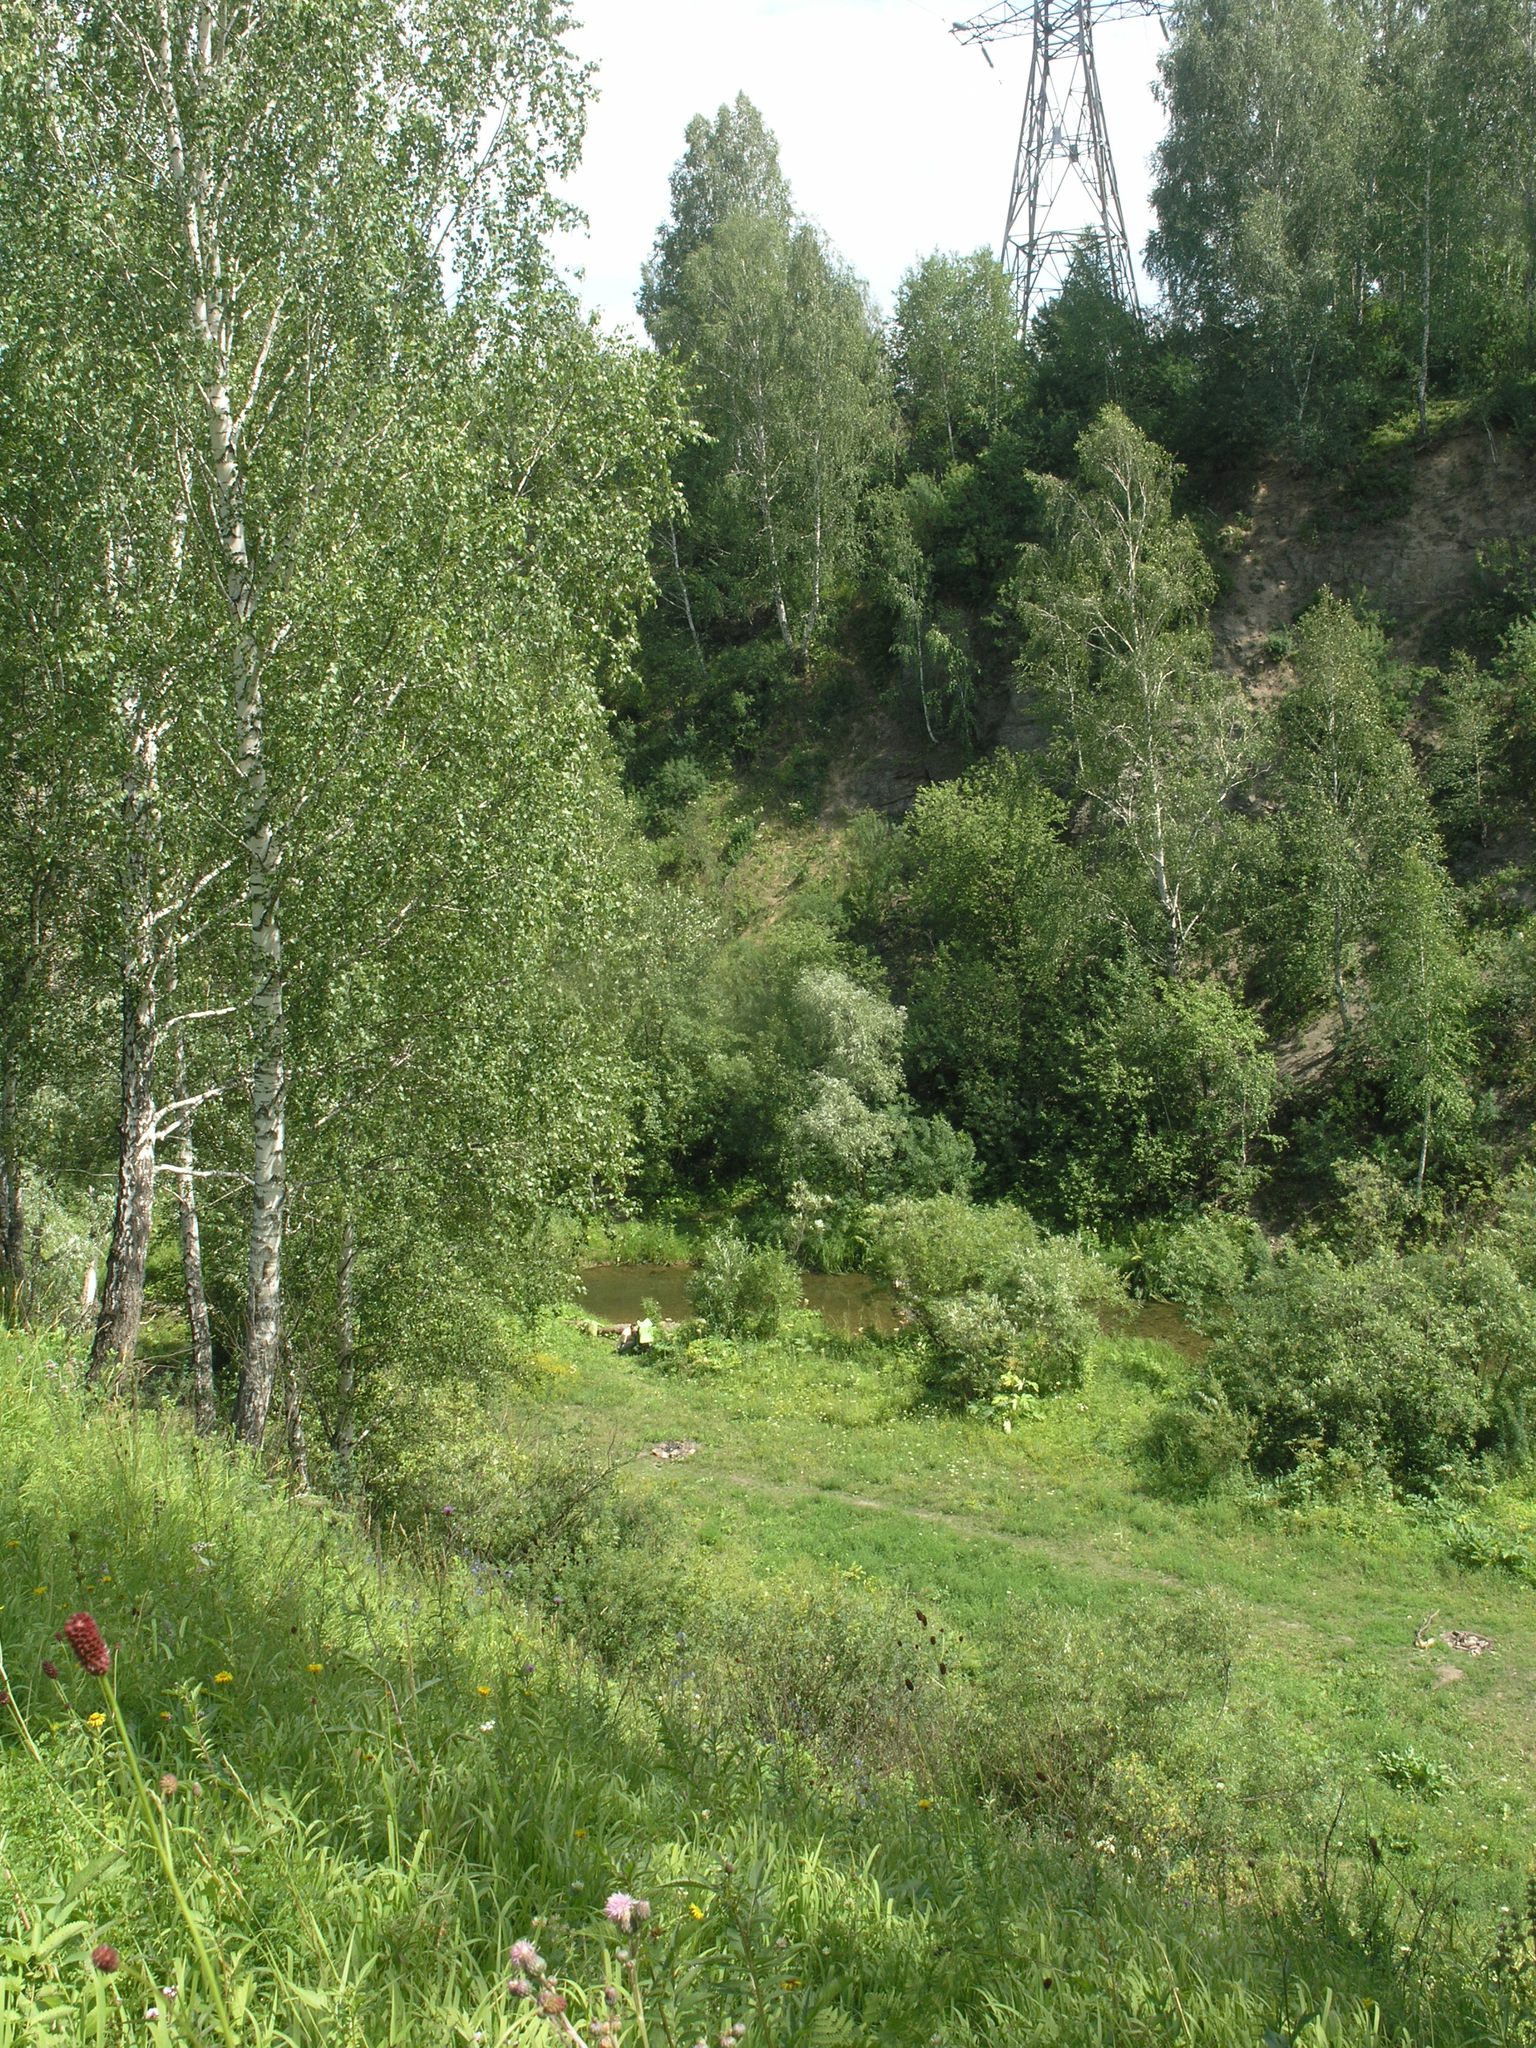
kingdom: Plantae
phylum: Tracheophyta
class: Magnoliopsida
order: Fagales
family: Betulaceae
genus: Betula
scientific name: Betula pendula
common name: Silver birch
